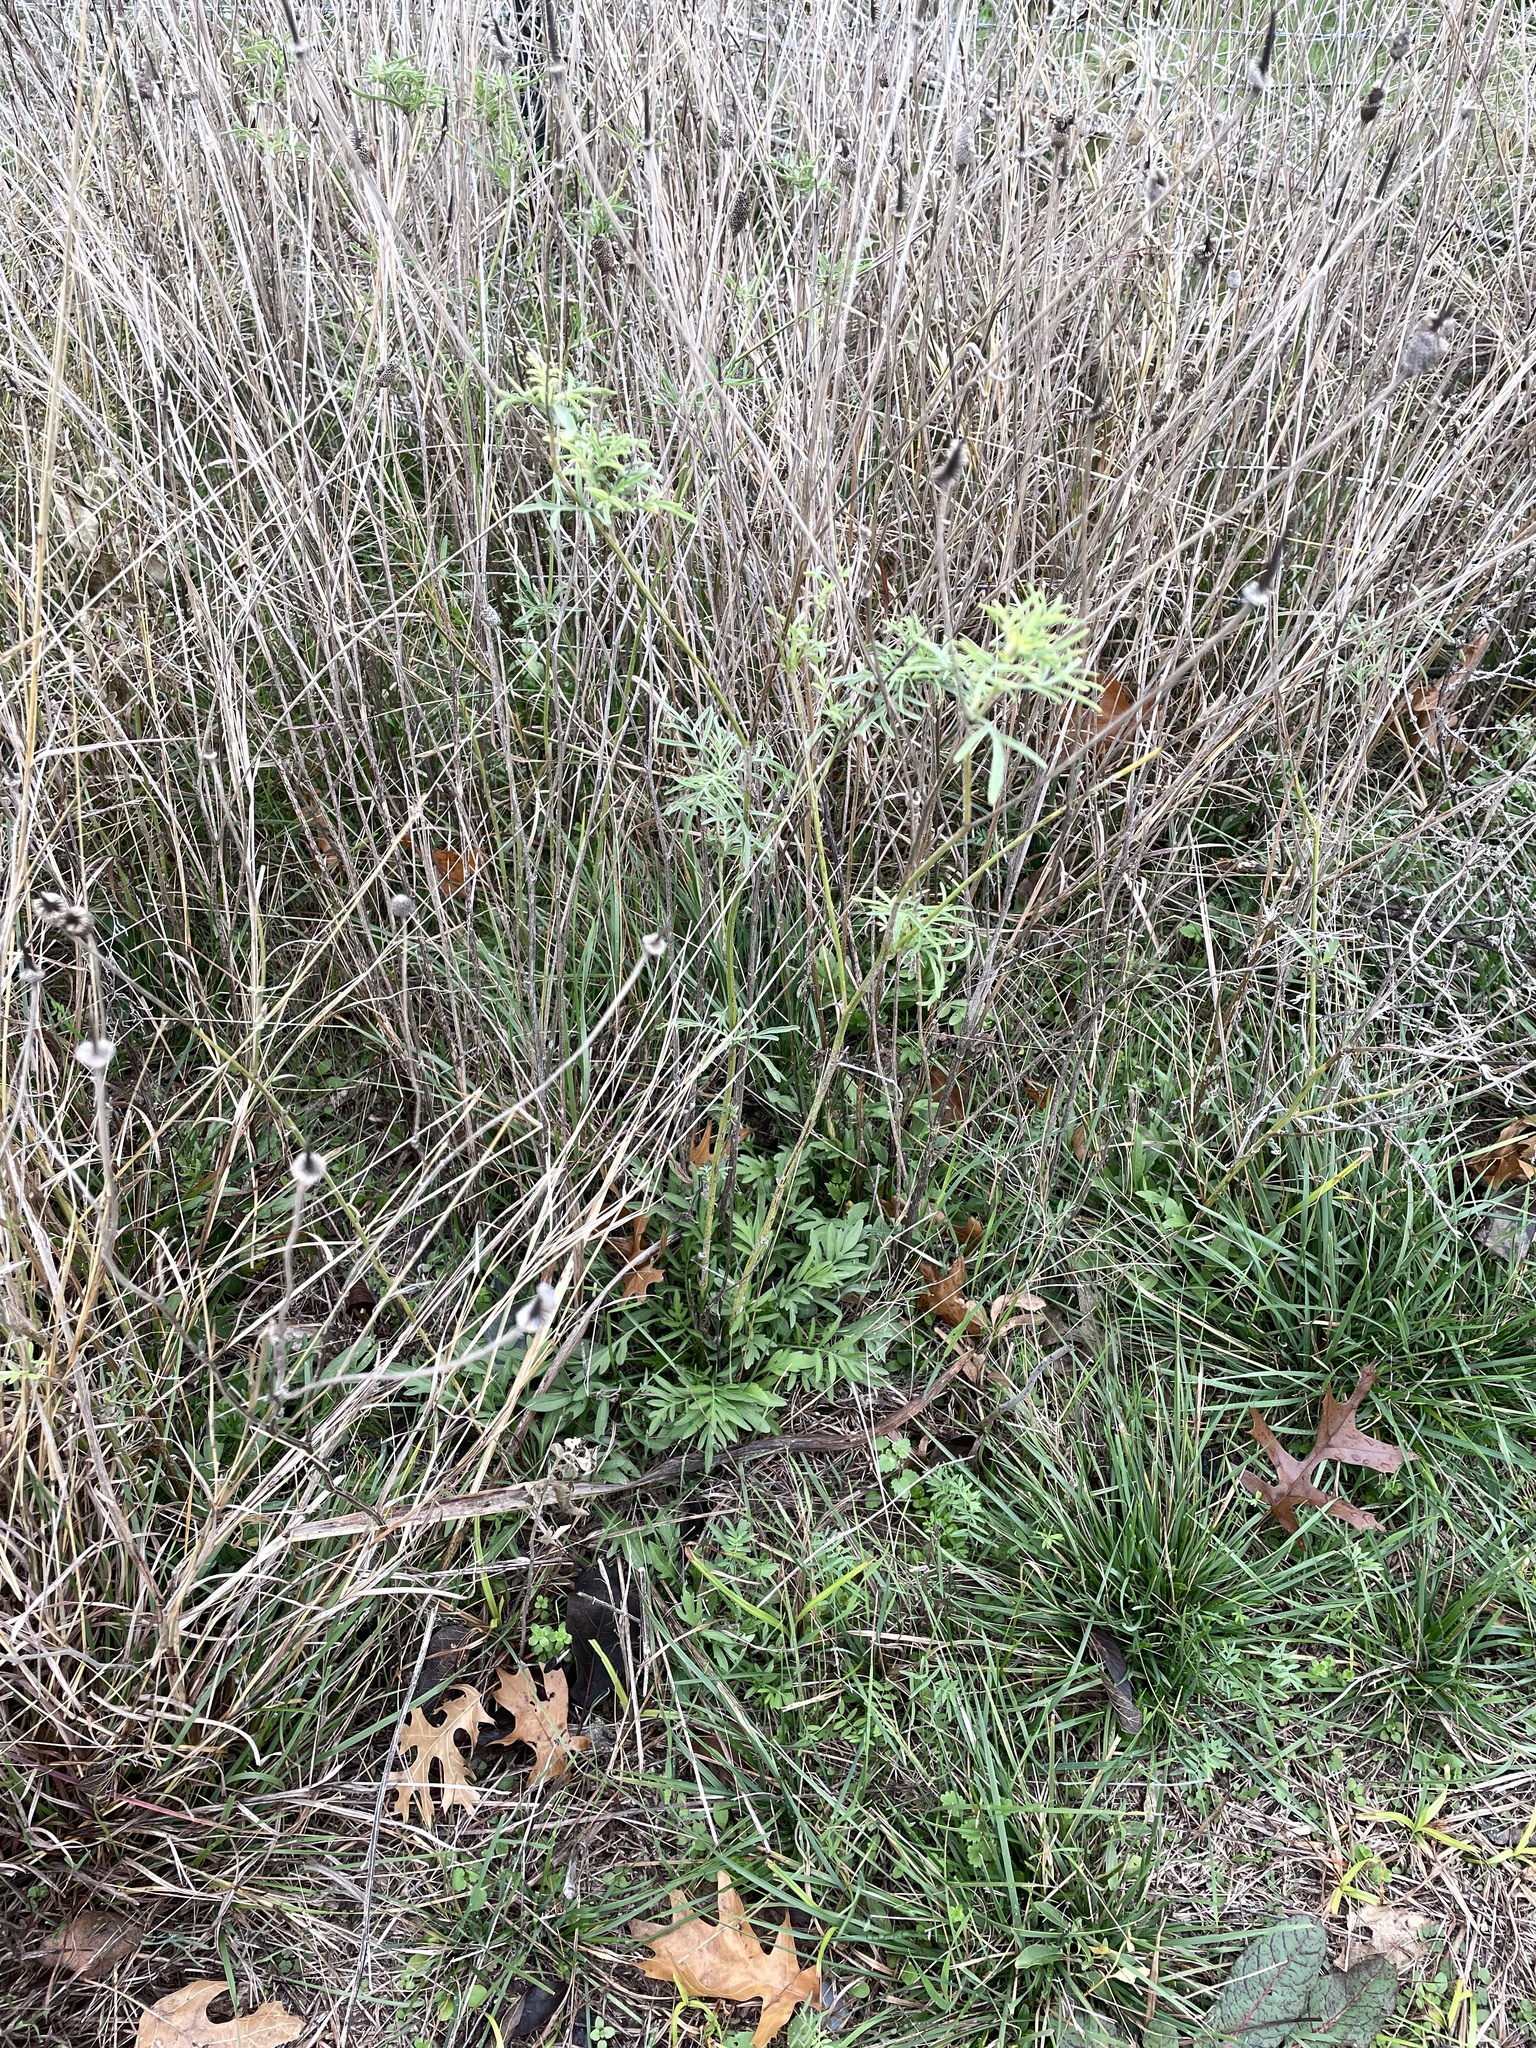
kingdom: Plantae
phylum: Tracheophyta
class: Magnoliopsida
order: Asterales
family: Asteraceae
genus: Ratibida
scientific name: Ratibida columnifera
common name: Prairie coneflower
